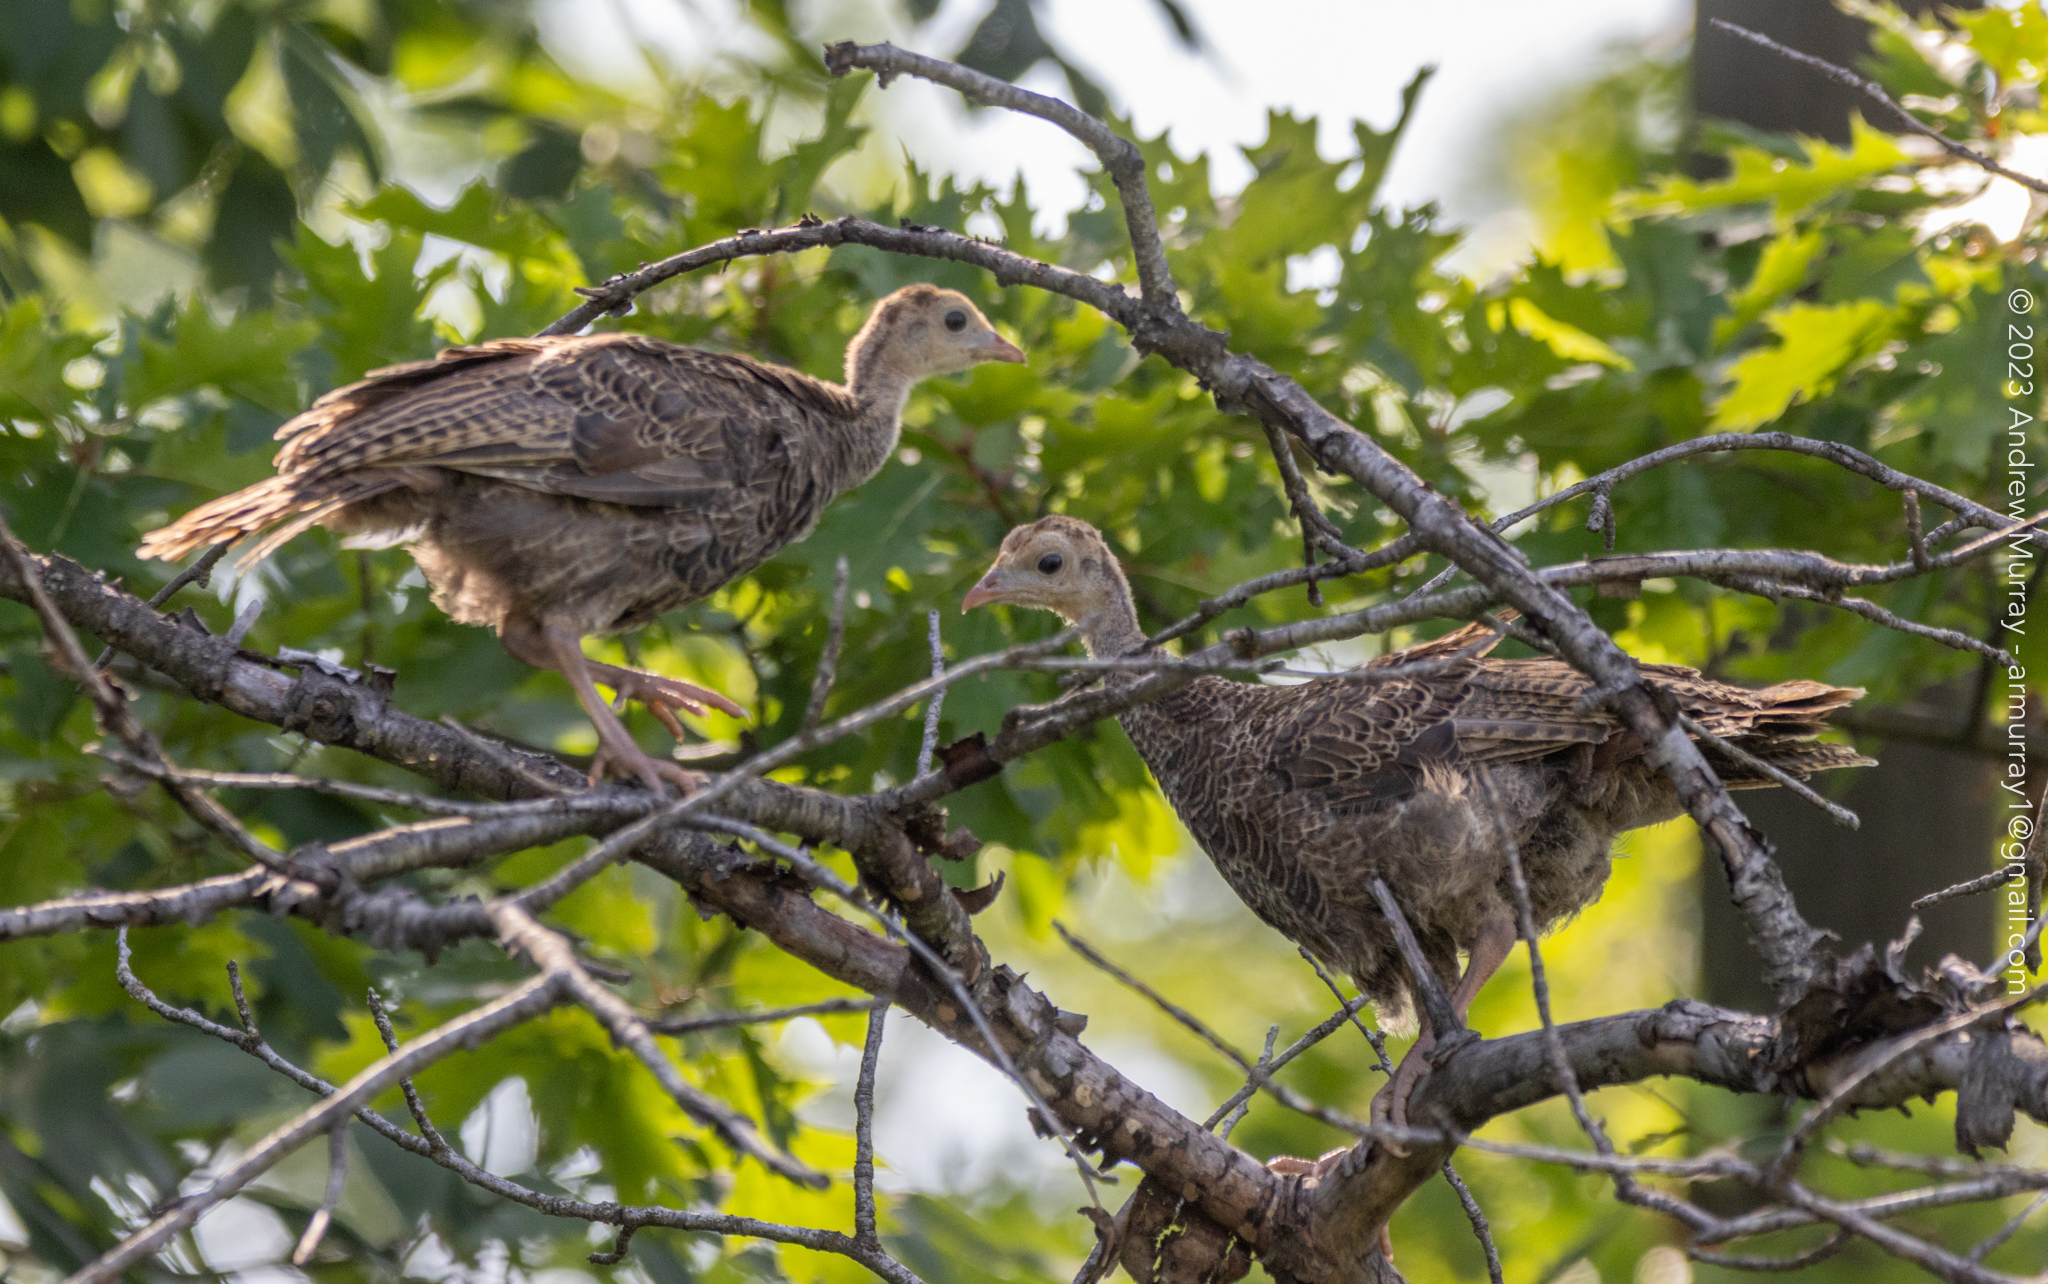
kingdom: Animalia
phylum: Chordata
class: Aves
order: Galliformes
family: Phasianidae
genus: Meleagris
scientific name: Meleagris gallopavo
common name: Wild turkey
